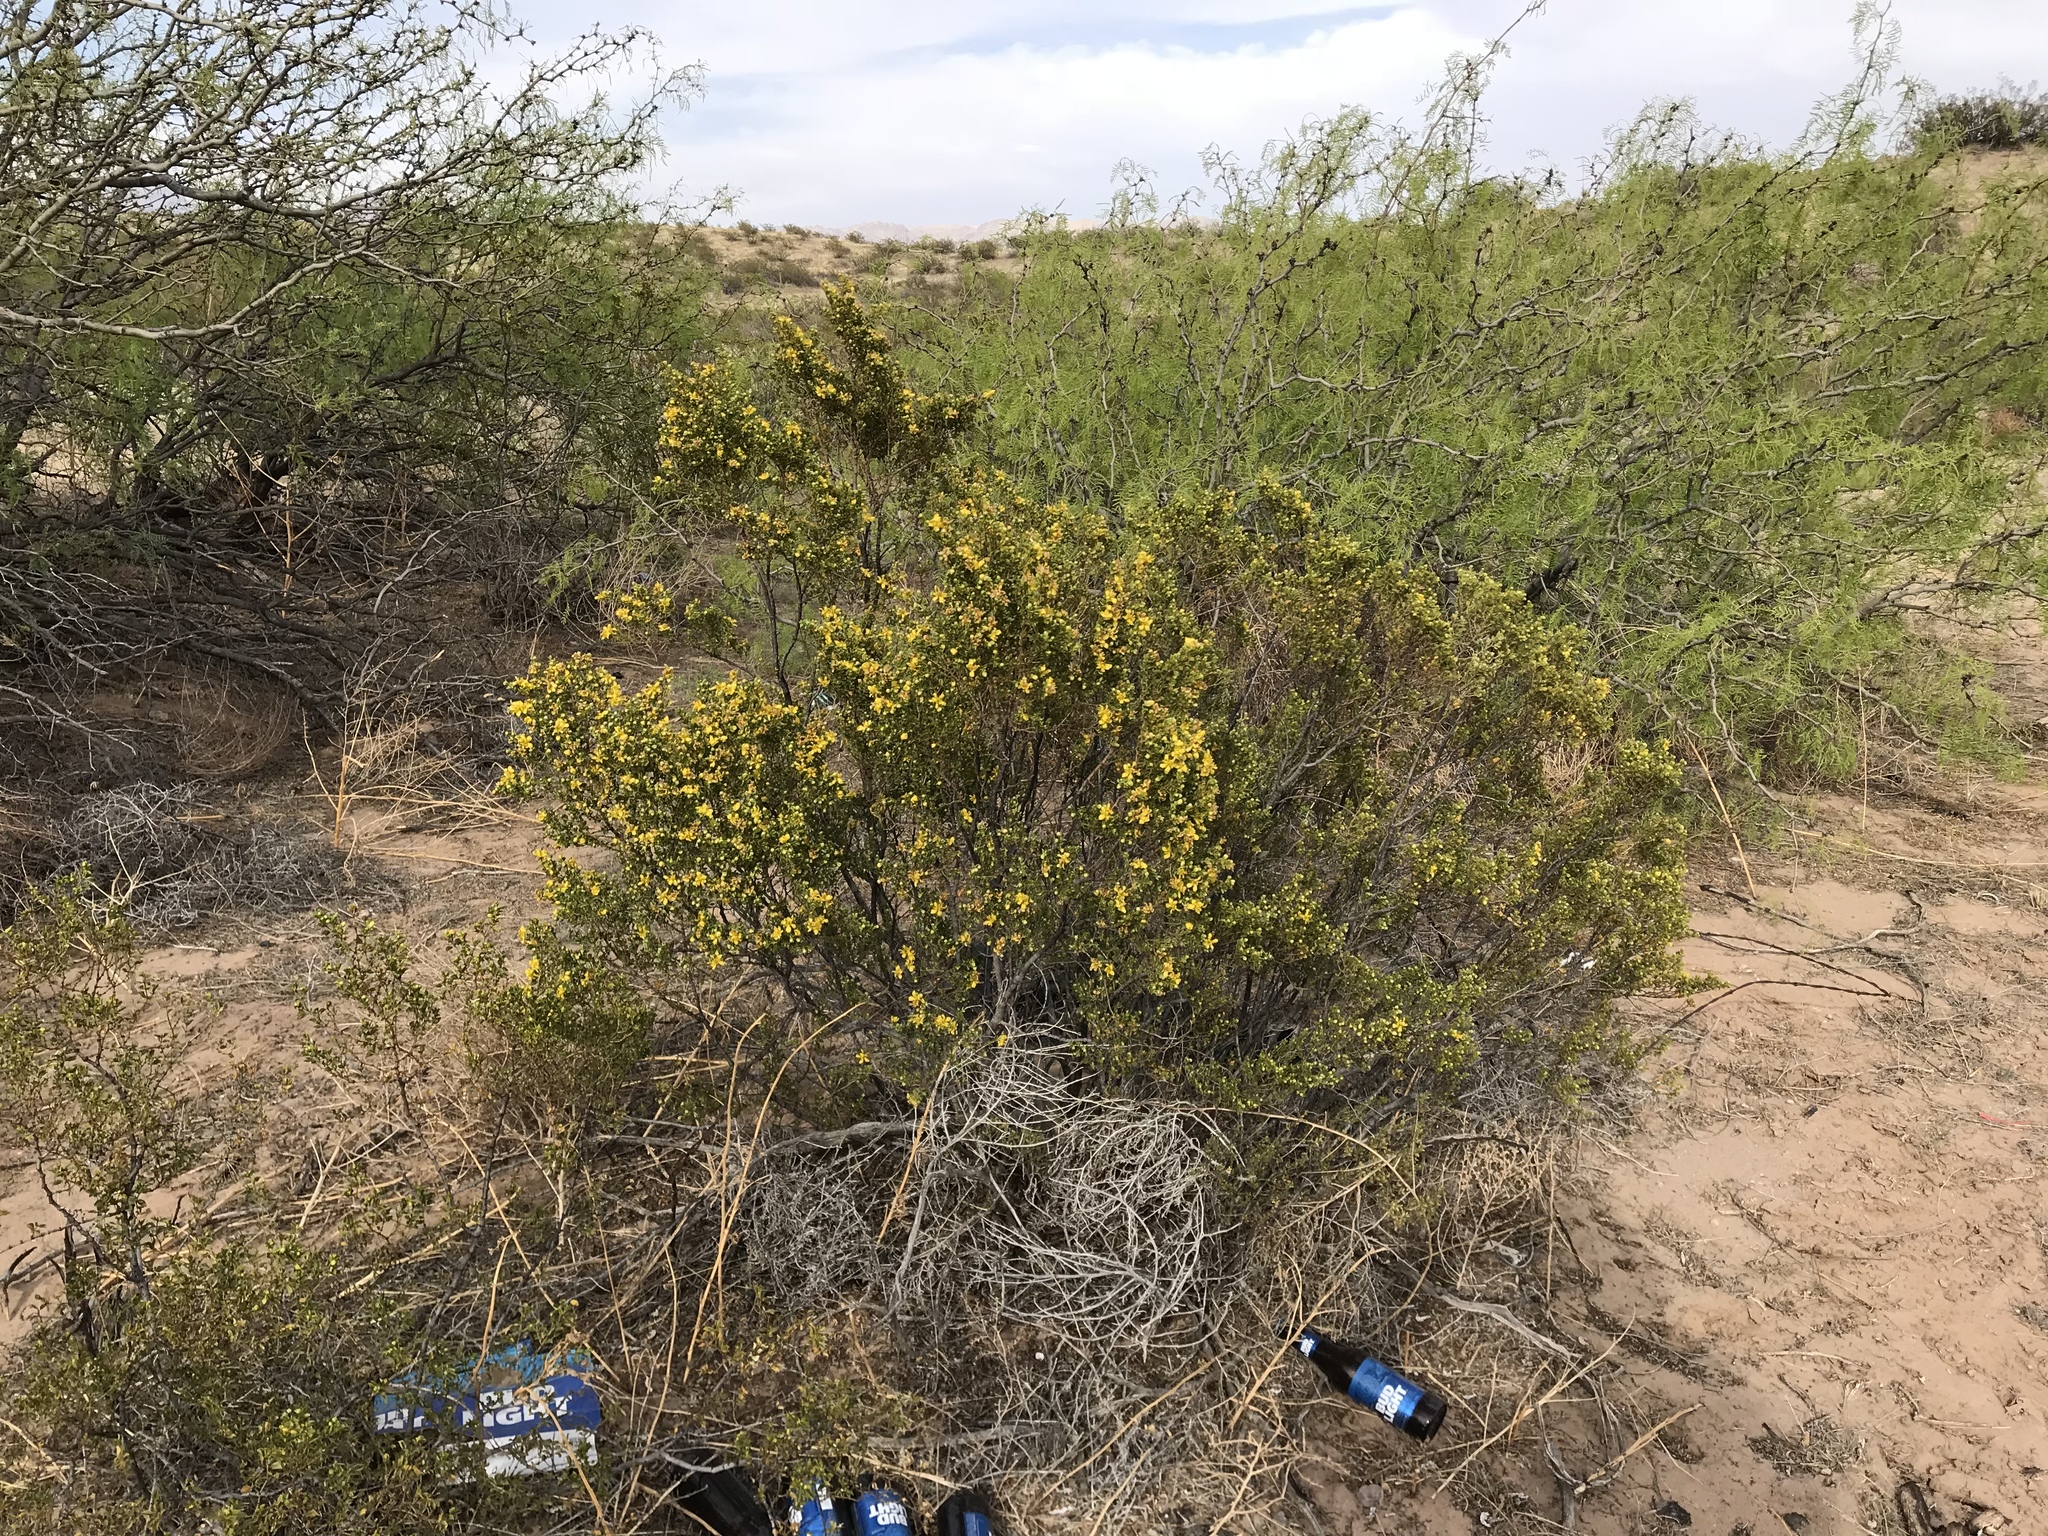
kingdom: Plantae
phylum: Tracheophyta
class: Magnoliopsida
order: Zygophyllales
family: Zygophyllaceae
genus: Larrea
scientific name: Larrea tridentata
